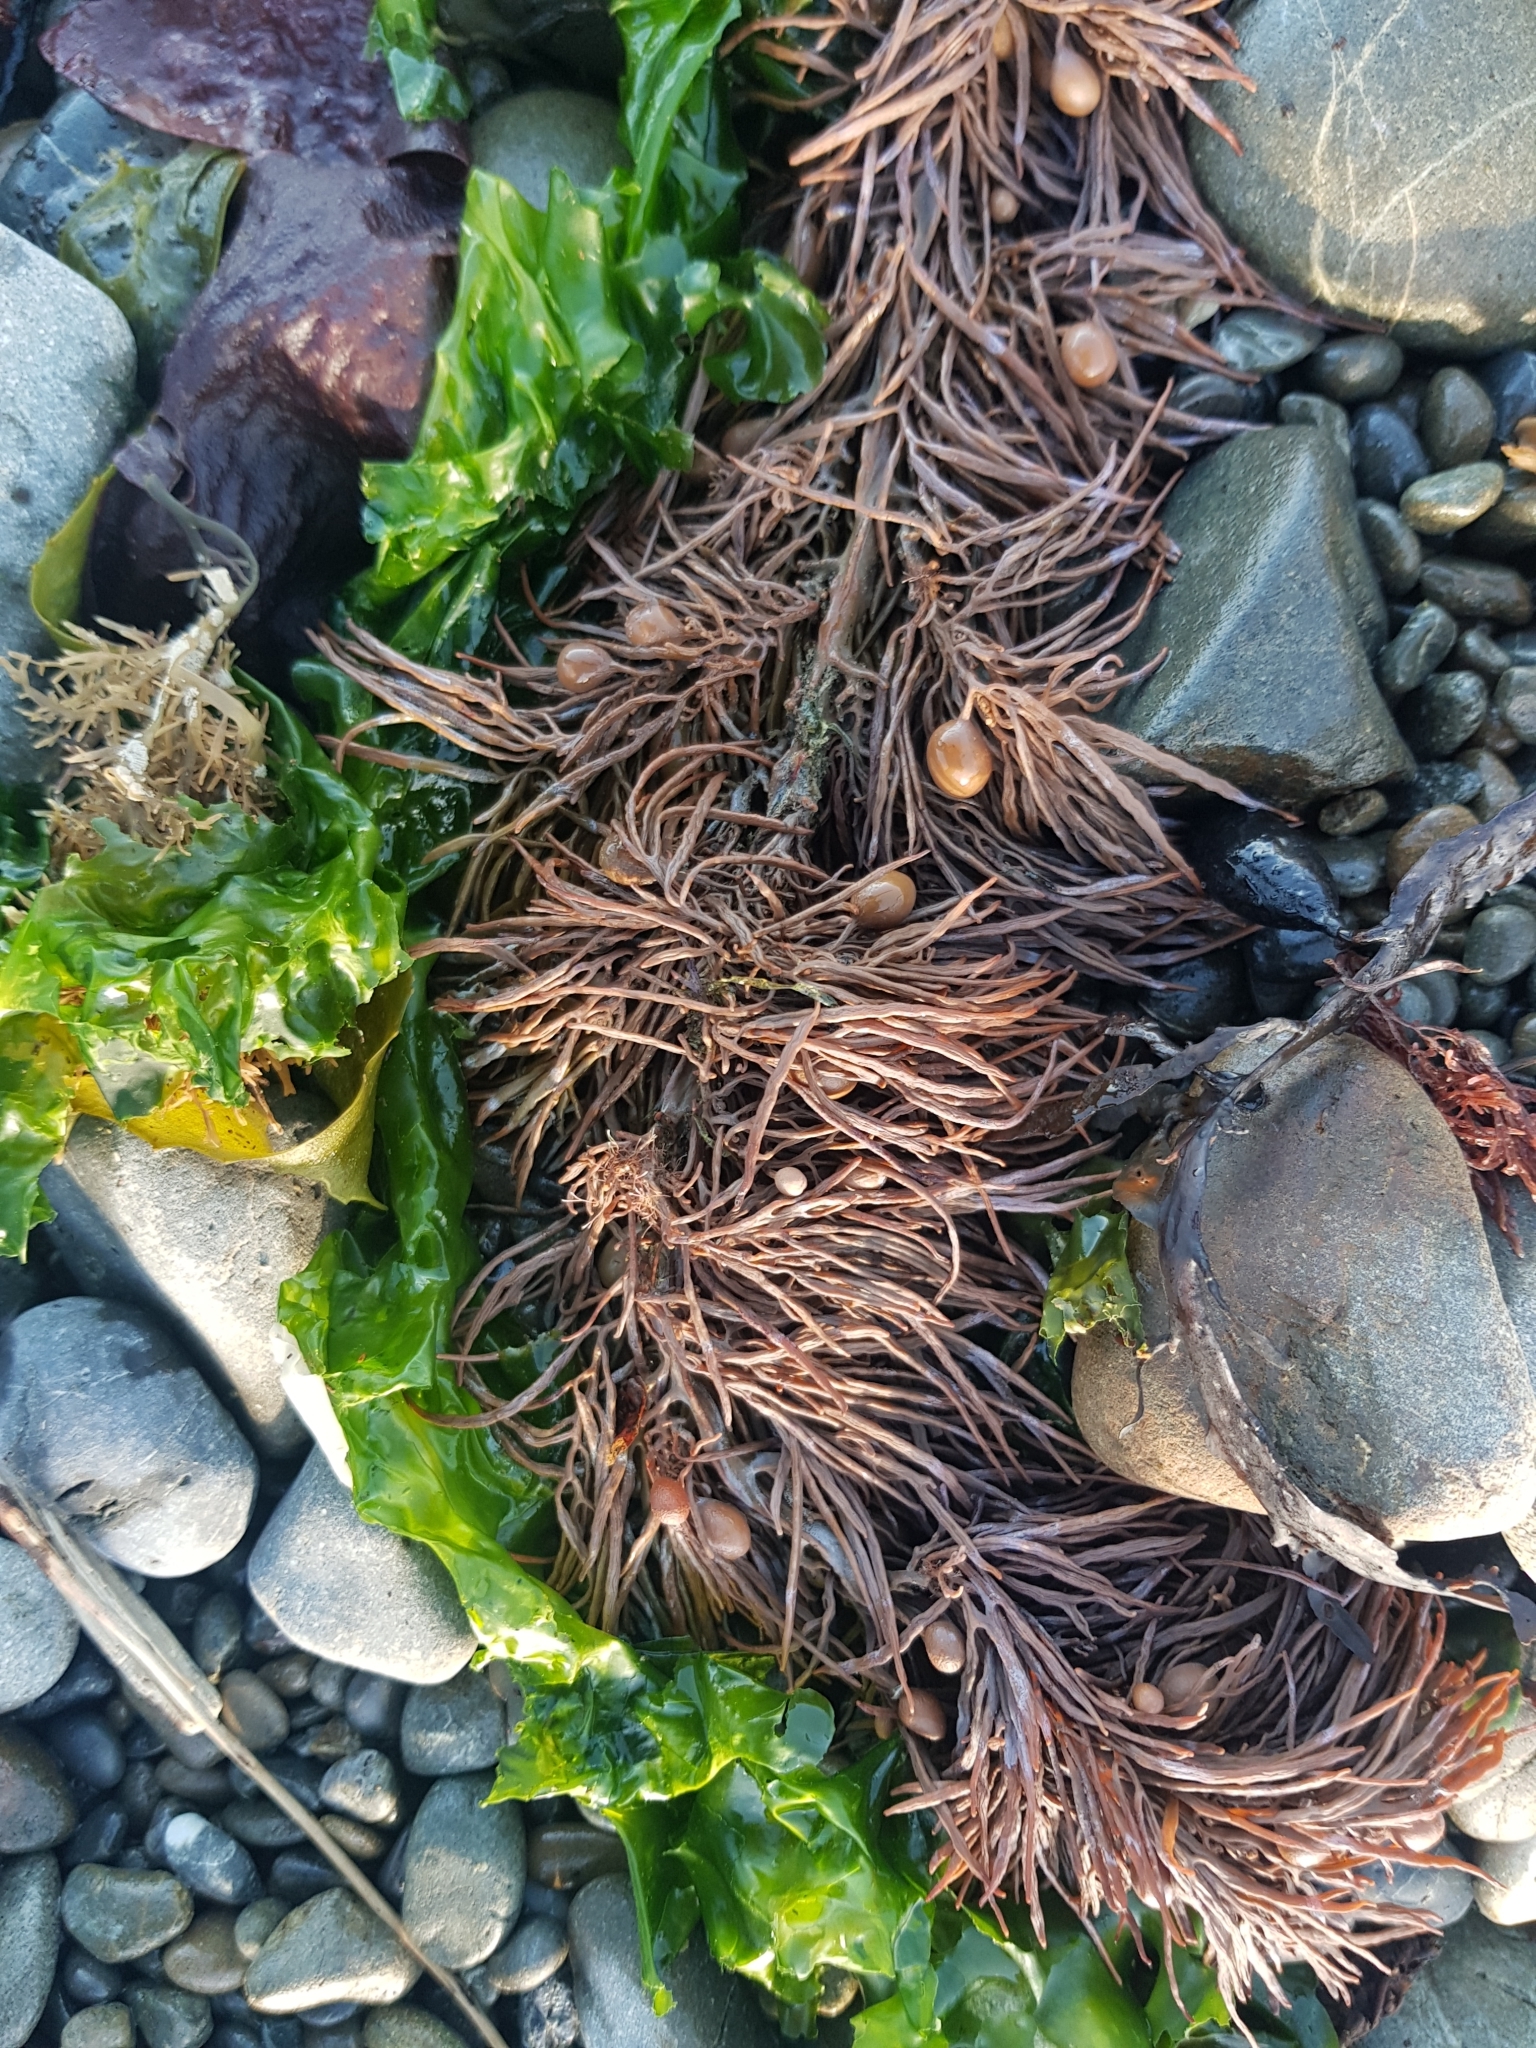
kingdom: Chromista
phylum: Ochrophyta
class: Phaeophyceae
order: Fucales
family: Sargassaceae
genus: Cystophora
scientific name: Cystophora retroflexa
